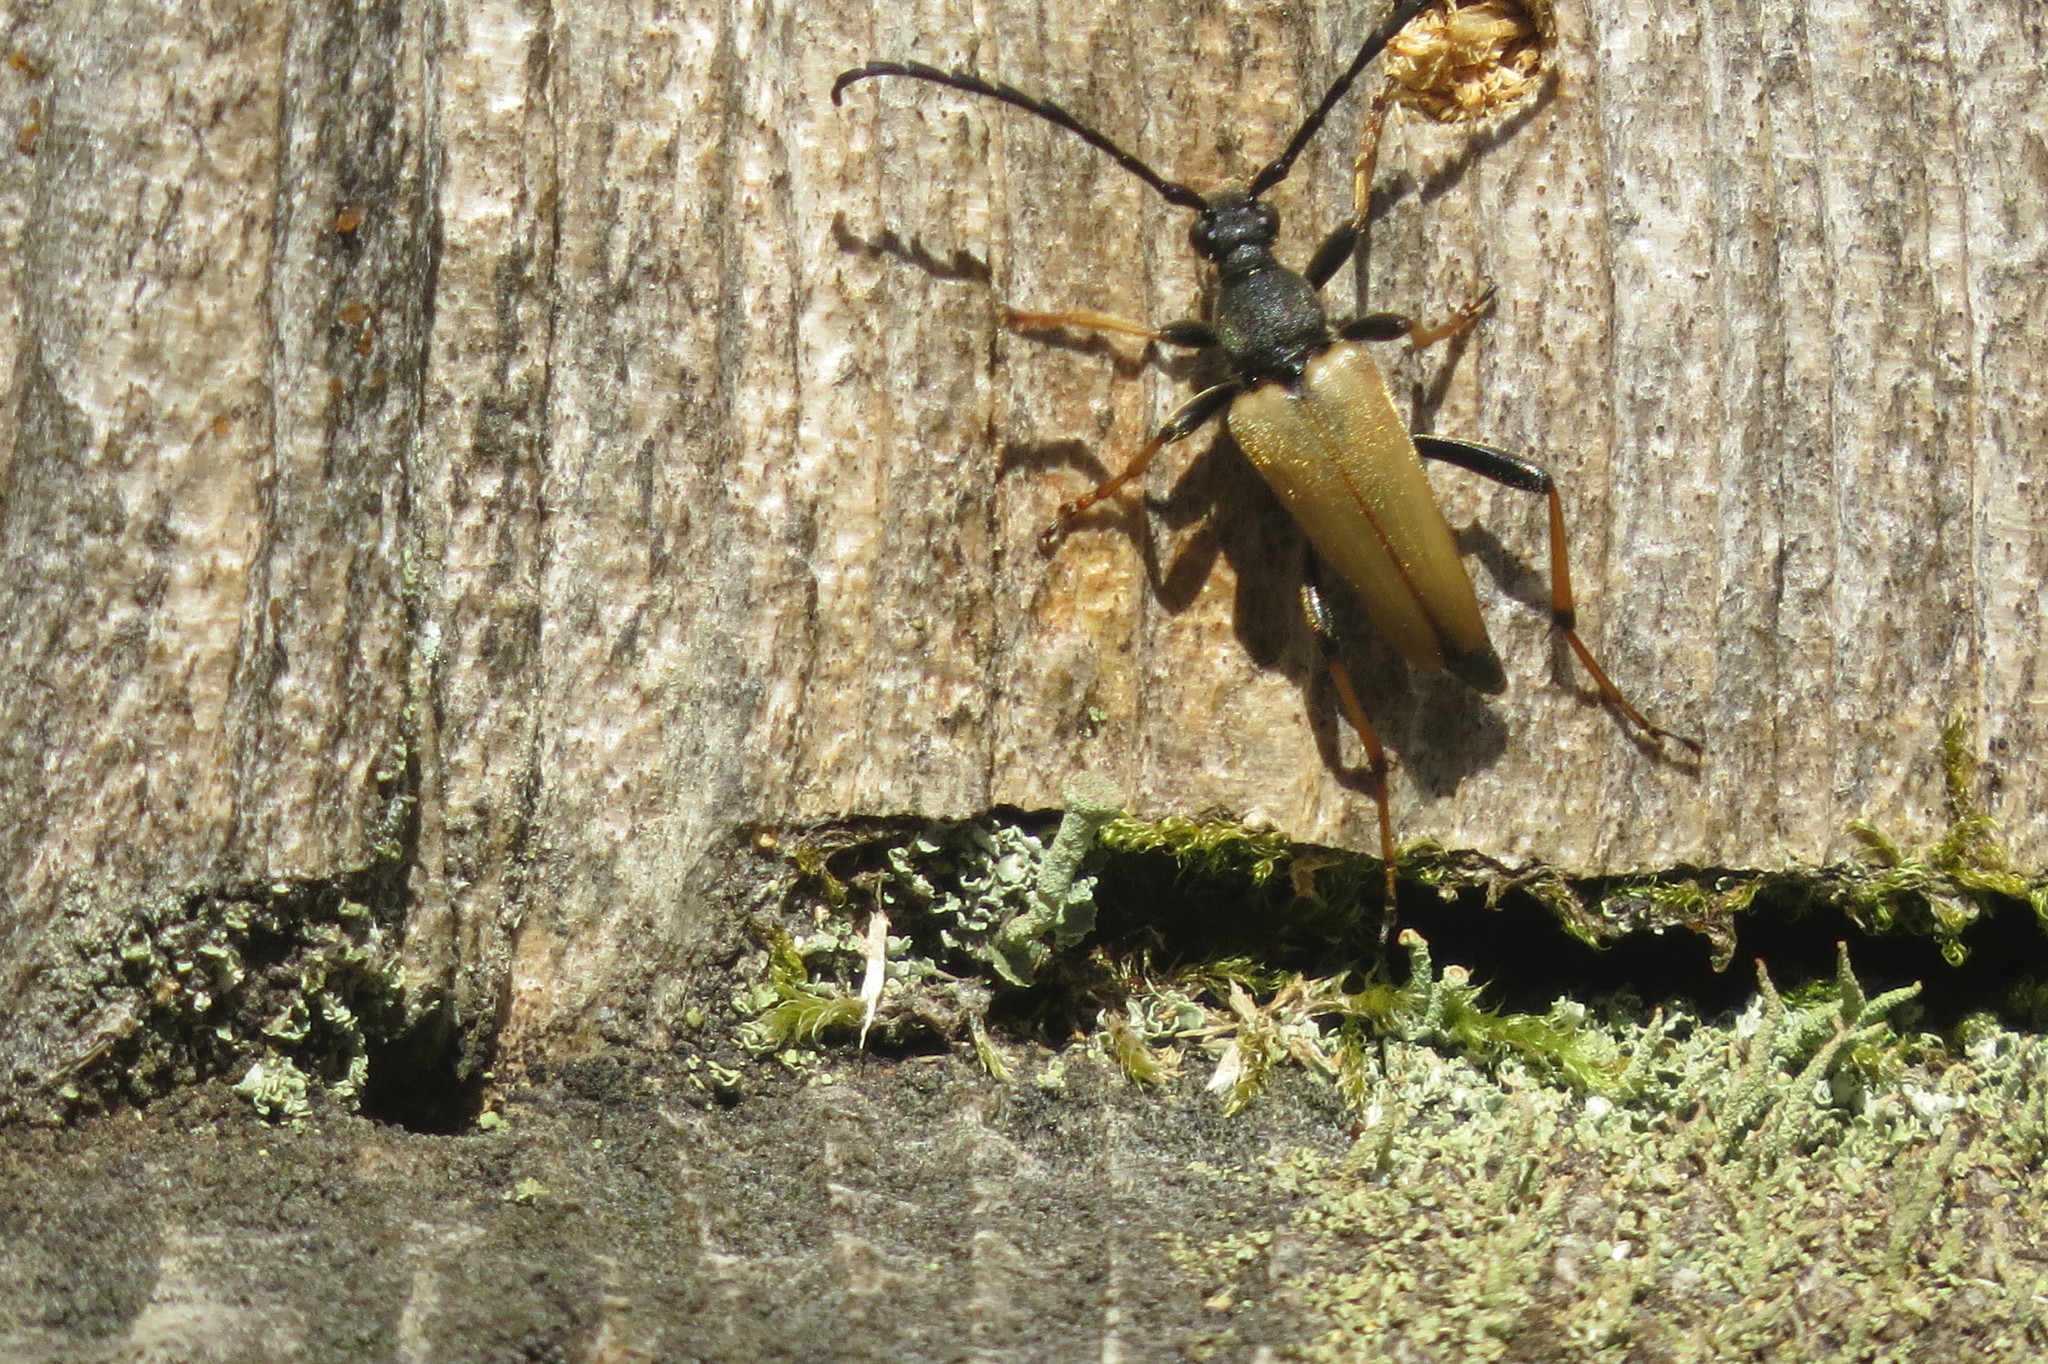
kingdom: Animalia
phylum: Arthropoda
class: Insecta
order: Coleoptera
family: Cerambycidae
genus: Stictoleptura
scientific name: Stictoleptura rubra
